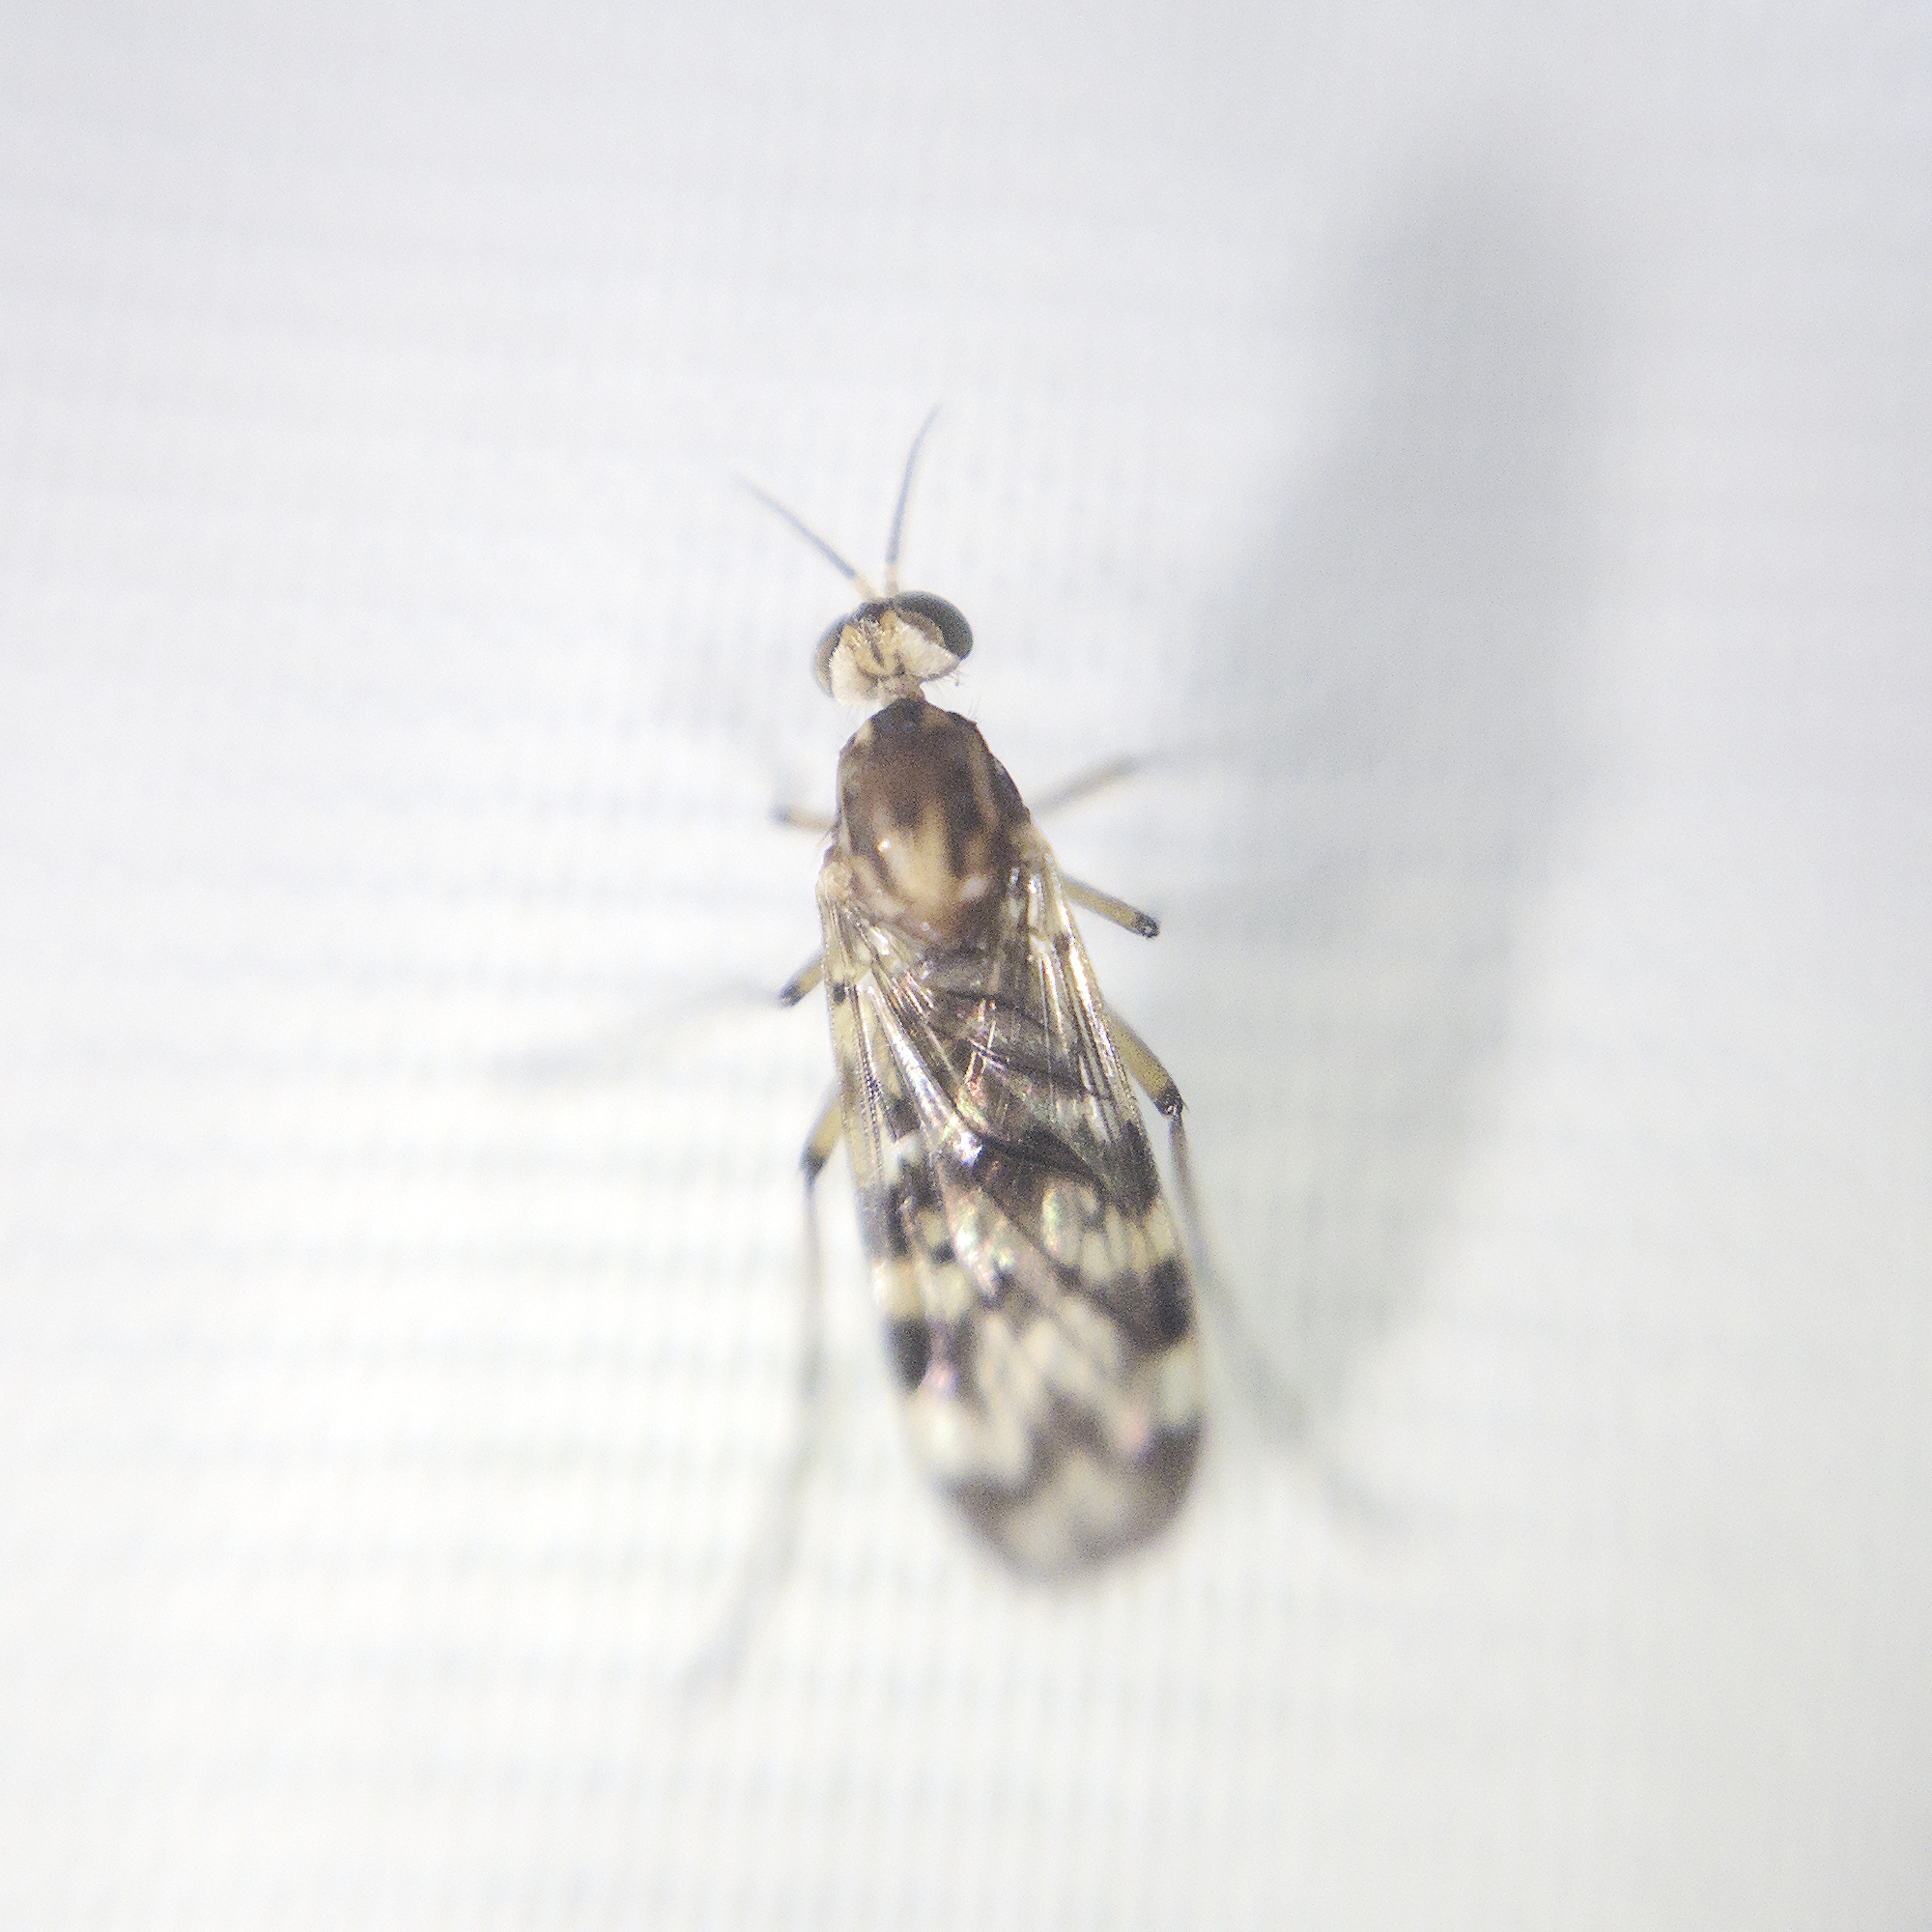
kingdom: Animalia
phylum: Arthropoda
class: Insecta
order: Diptera
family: Anisopodidae
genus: Sylvicola
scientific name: Sylvicola dubius
